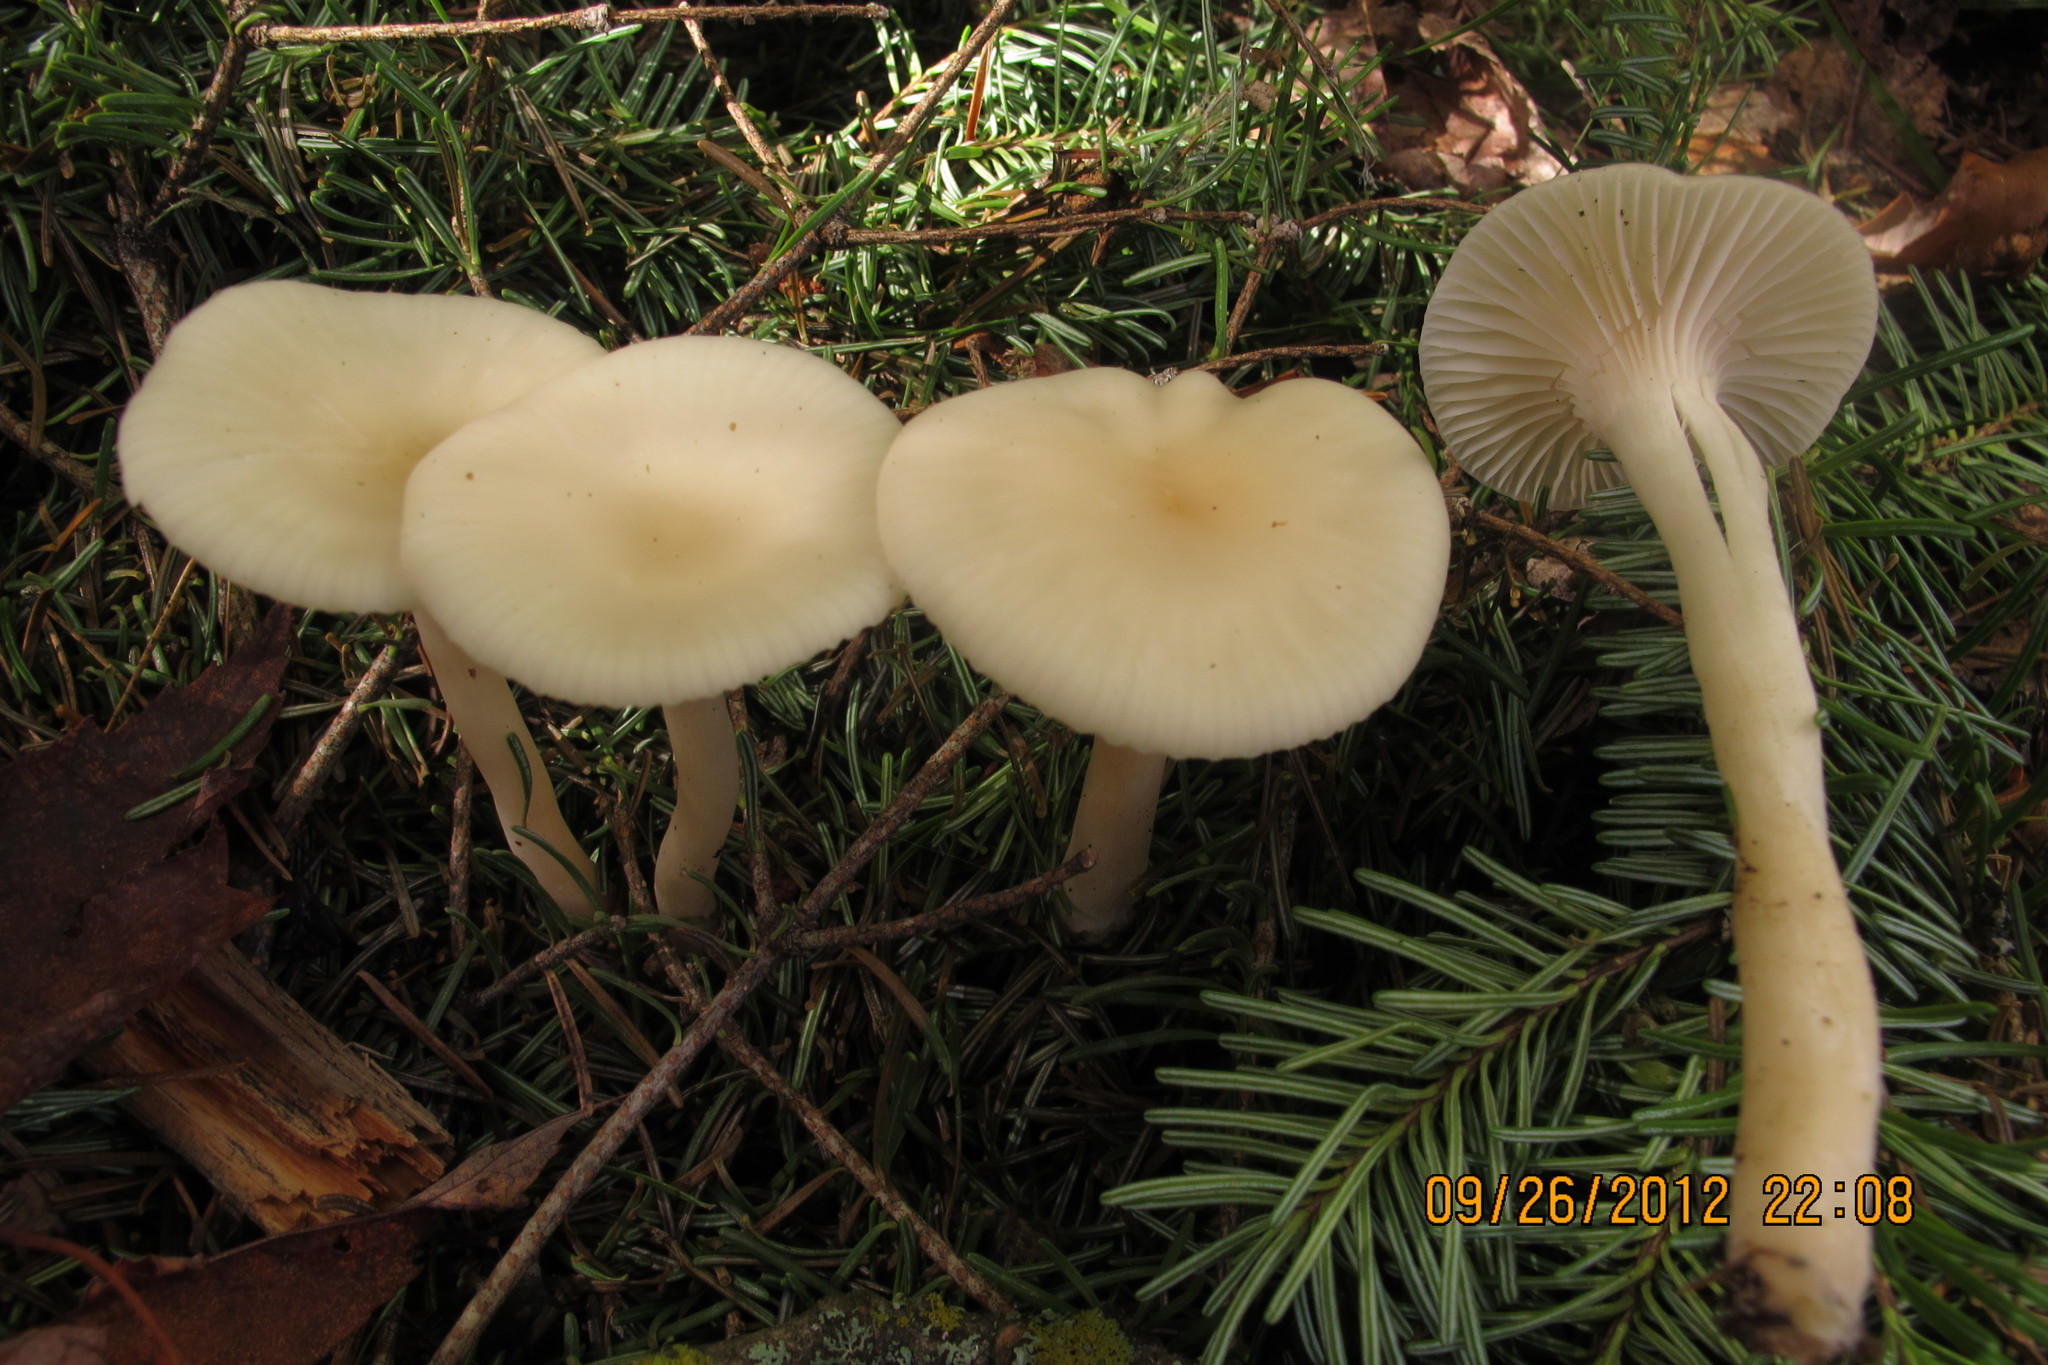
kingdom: Fungi
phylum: Basidiomycota
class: Agaricomycetes
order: Agaricales
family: Hygrophoraceae
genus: Cuphophyllus
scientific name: Cuphophyllus virgineus
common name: Snowy waxcap
